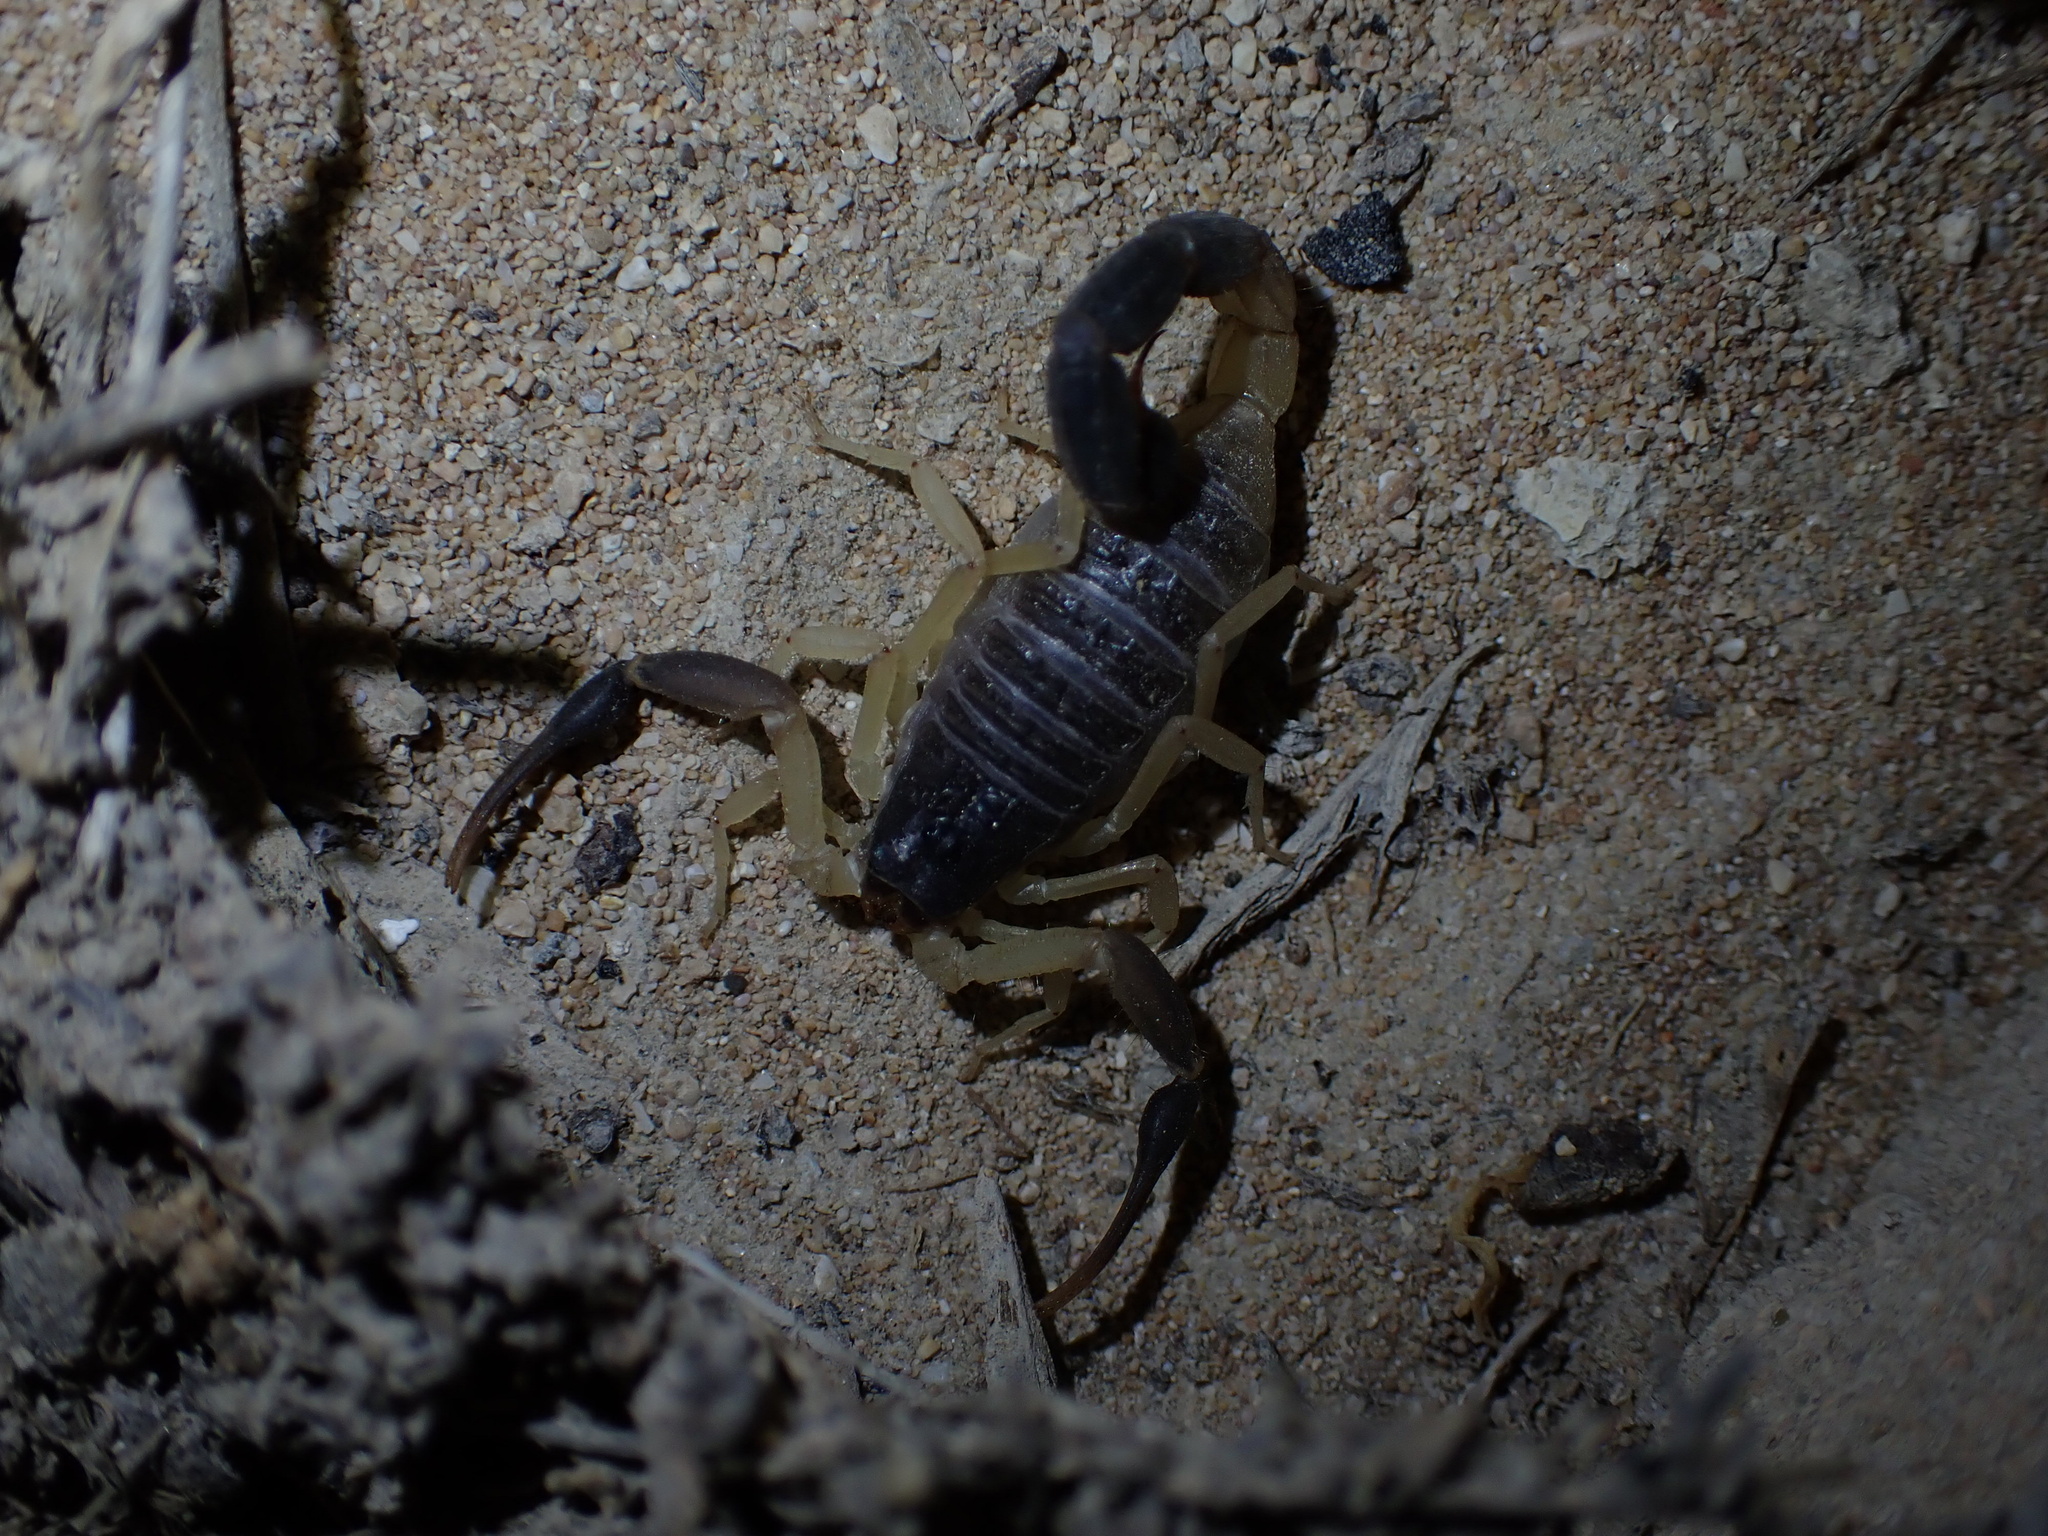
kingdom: Animalia
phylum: Arthropoda
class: Arachnida
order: Scorpiones
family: Buthidae
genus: Hottentotta
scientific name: Hottentotta jayakari
